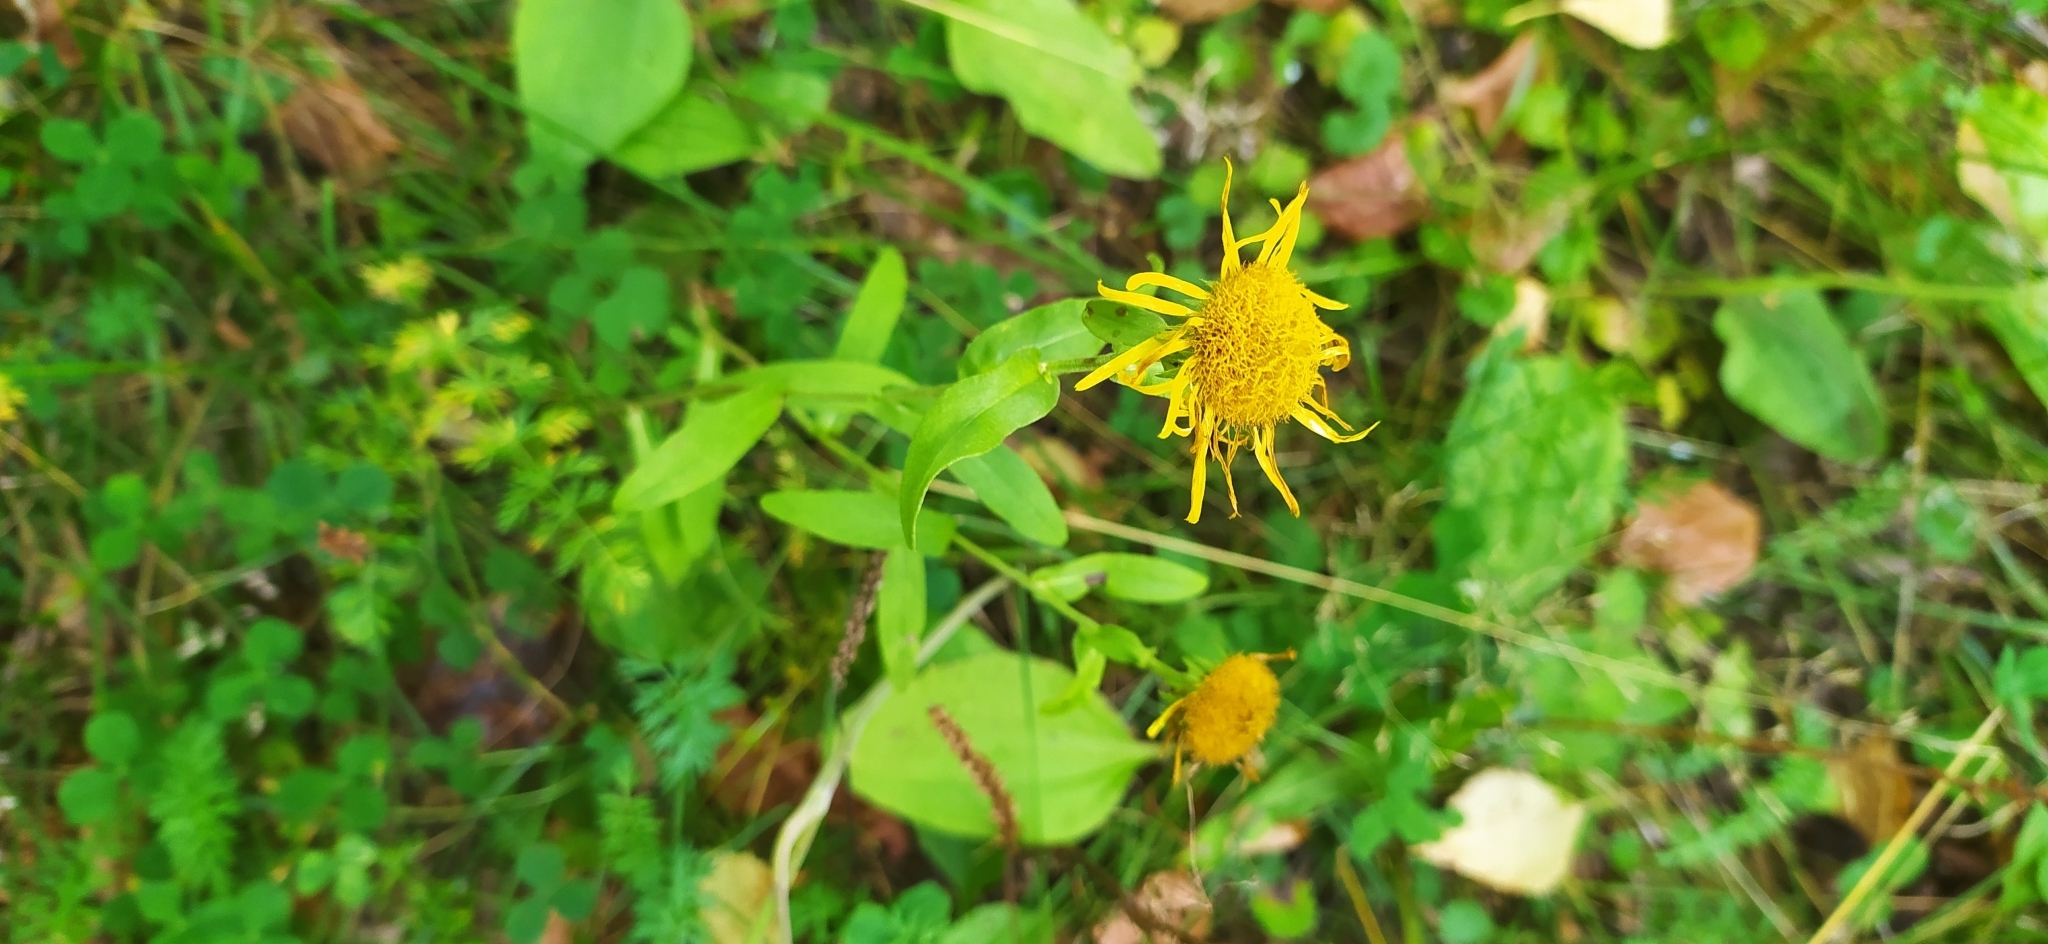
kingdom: Plantae
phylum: Tracheophyta
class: Magnoliopsida
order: Asterales
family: Asteraceae
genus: Pentanema
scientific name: Pentanema britannicum
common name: British elecampane
